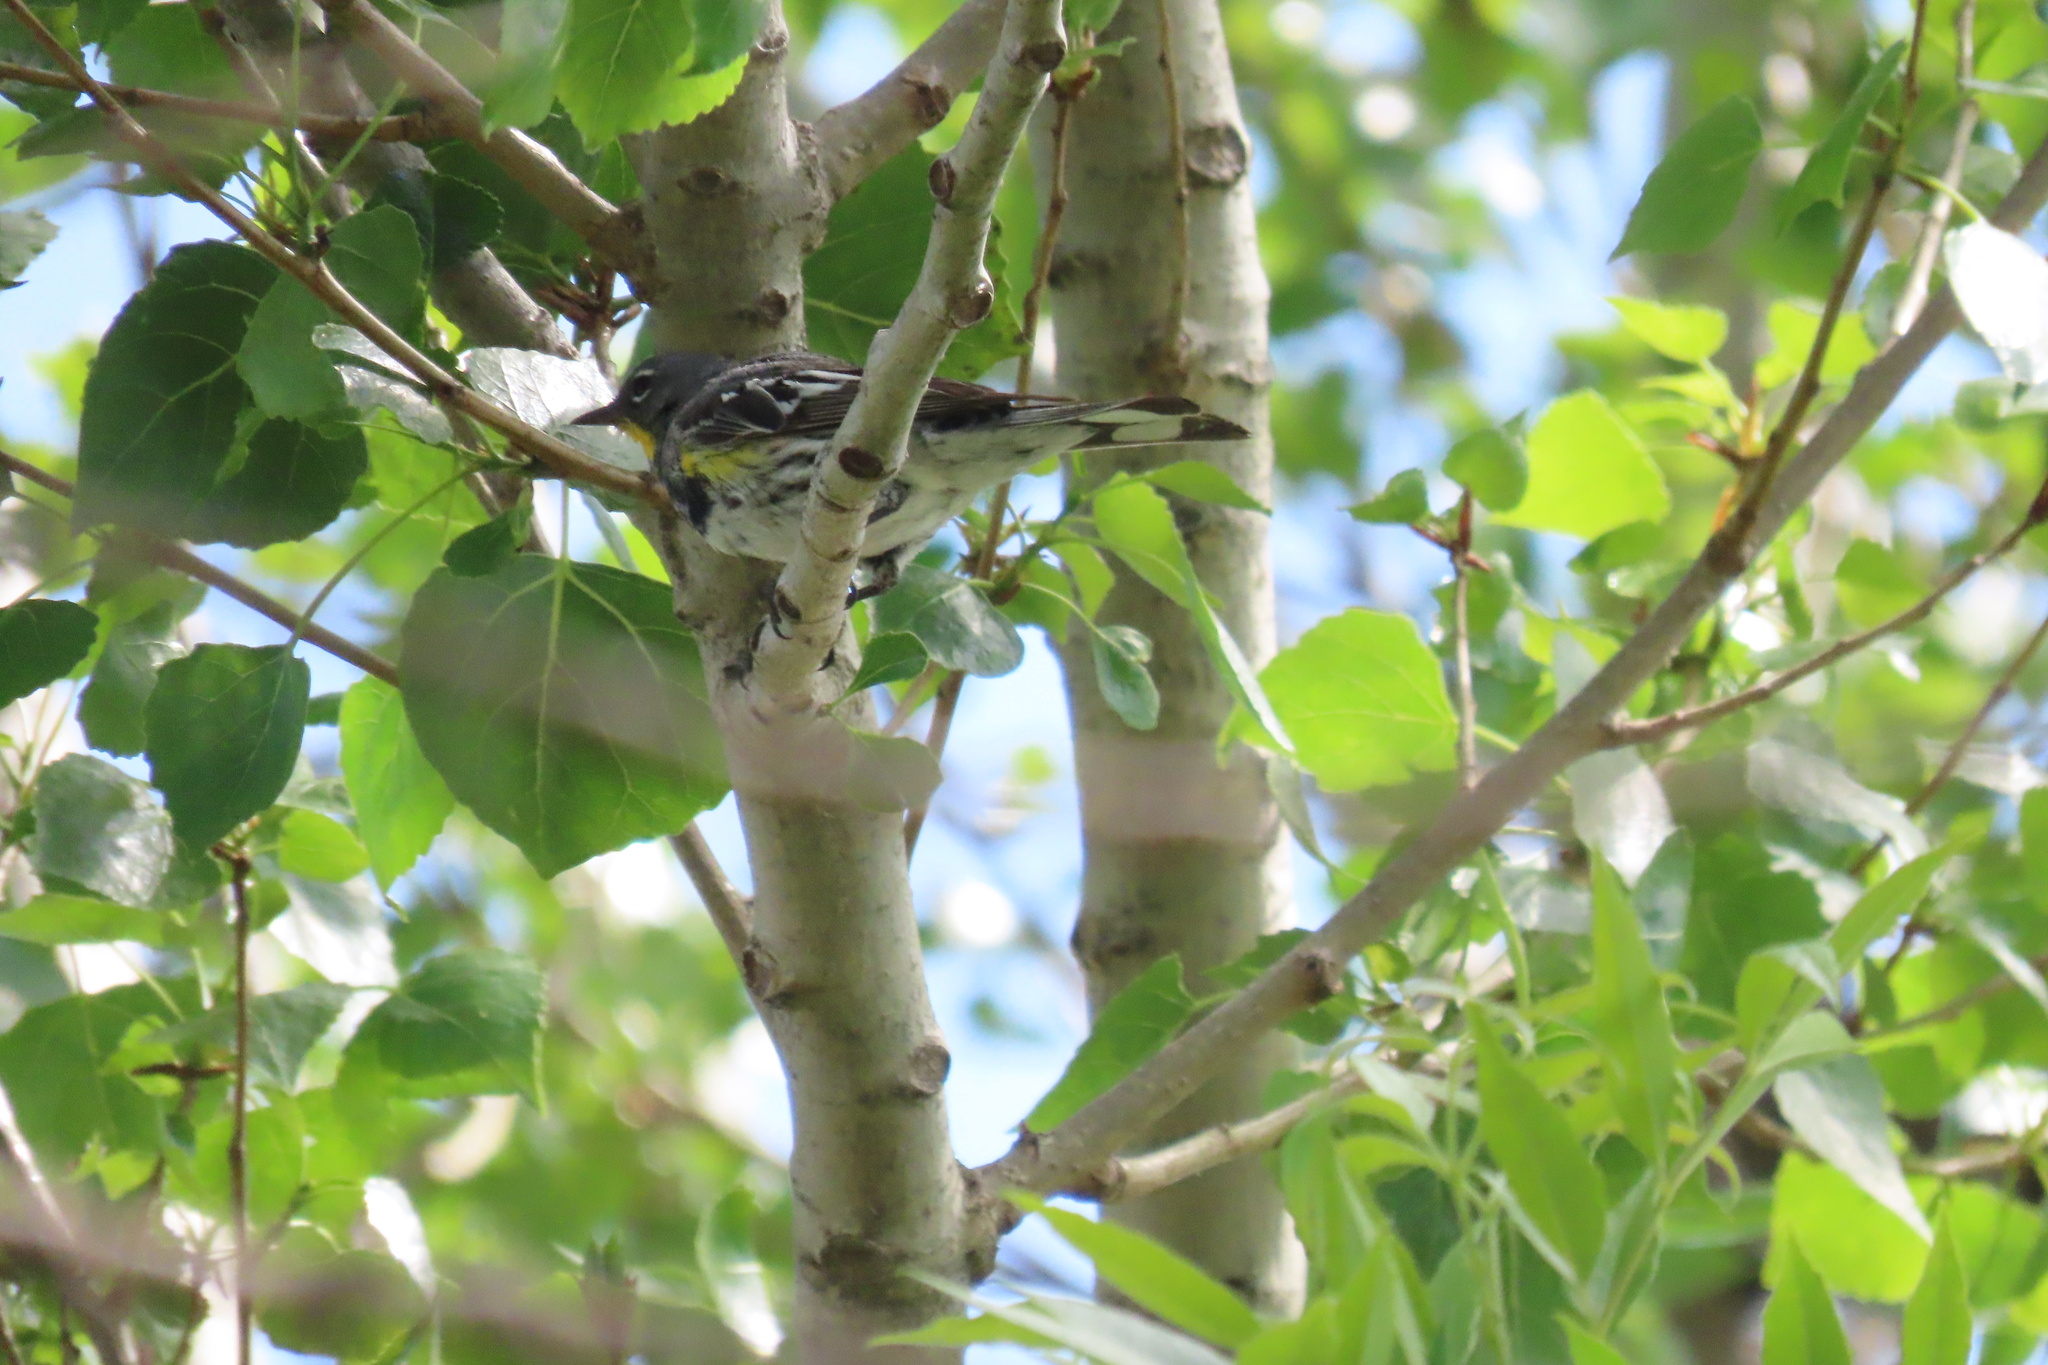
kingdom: Animalia
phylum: Chordata
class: Aves
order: Passeriformes
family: Parulidae
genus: Setophaga
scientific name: Setophaga coronata
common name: Myrtle warbler
